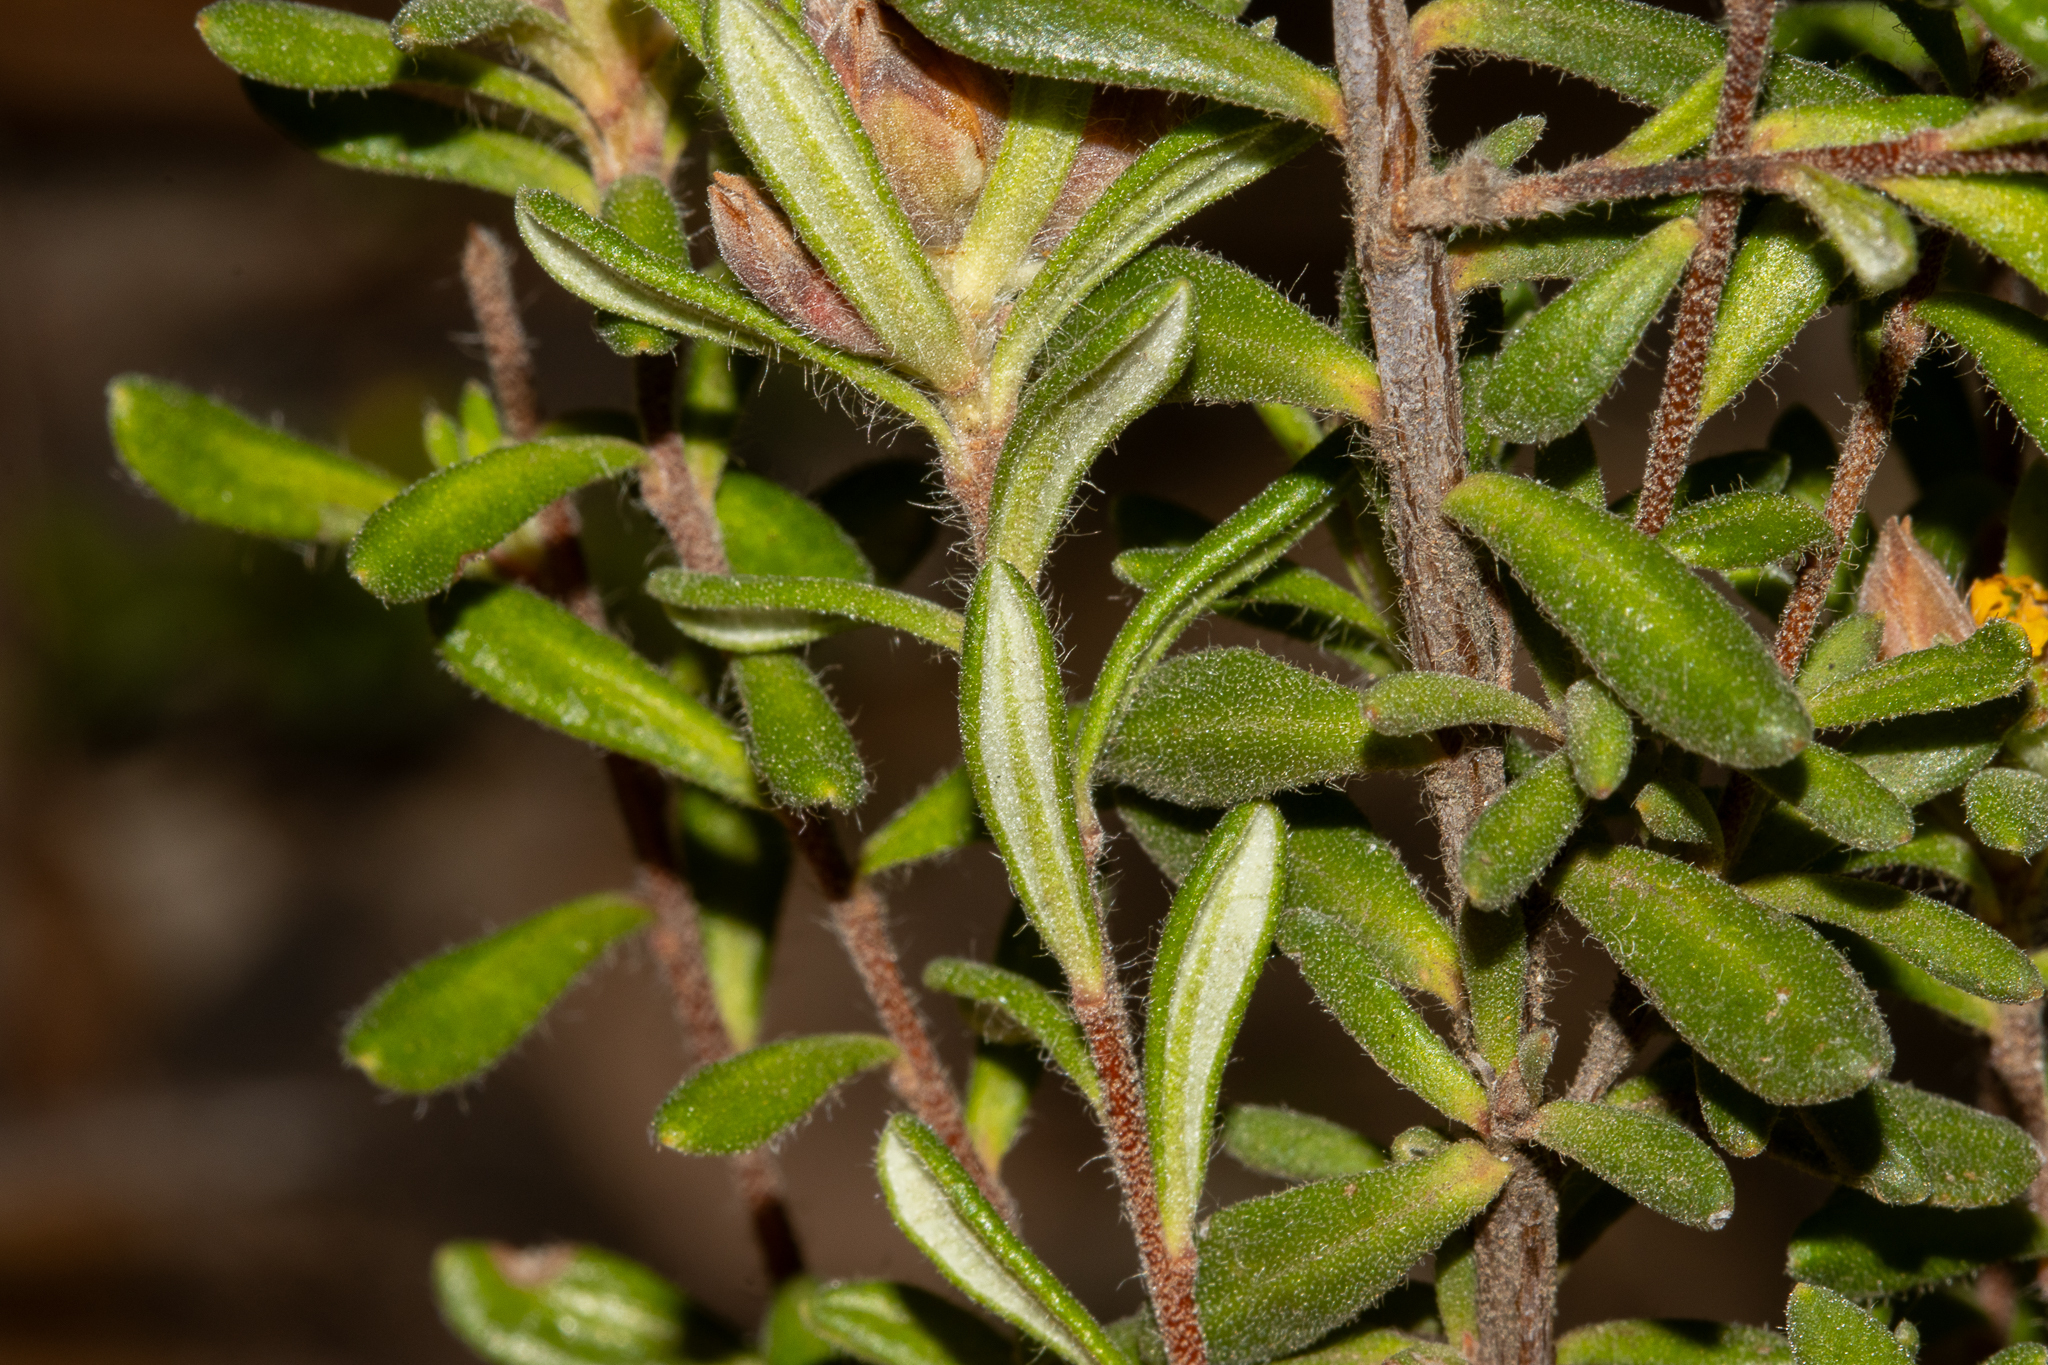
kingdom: Plantae
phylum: Tracheophyta
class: Magnoliopsida
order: Dilleniales
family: Dilleniaceae
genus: Hibbertia
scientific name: Hibbertia villifera
